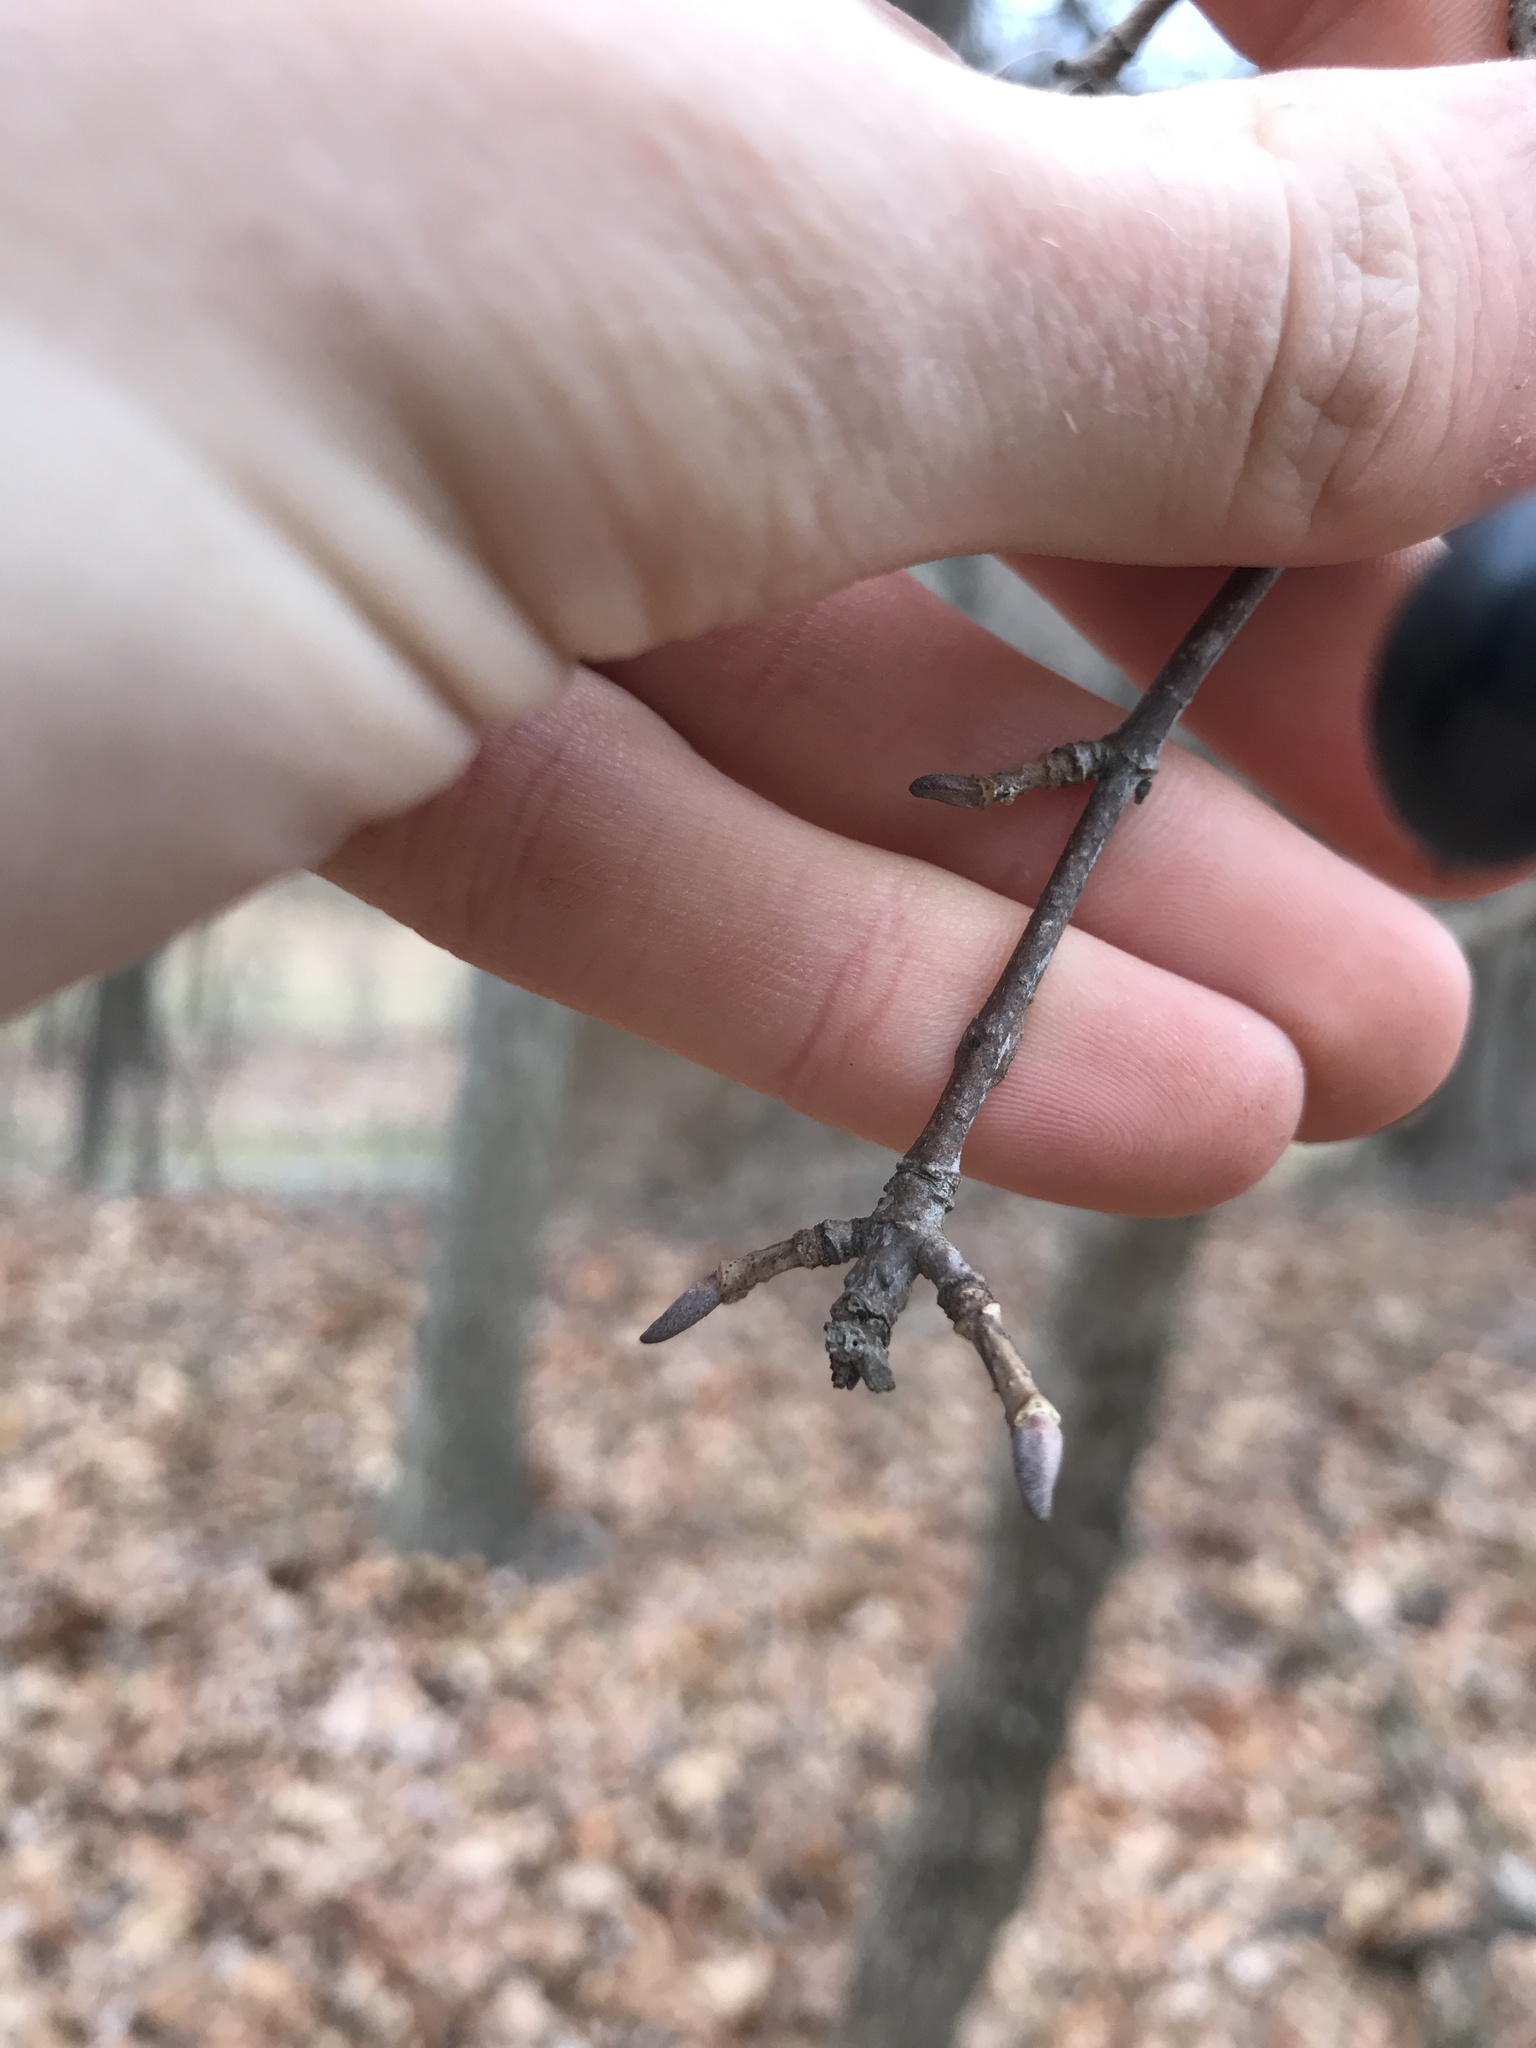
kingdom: Plantae
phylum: Tracheophyta
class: Magnoliopsida
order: Dipsacales
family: Viburnaceae
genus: Viburnum
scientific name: Viburnum prunifolium
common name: Black haw
